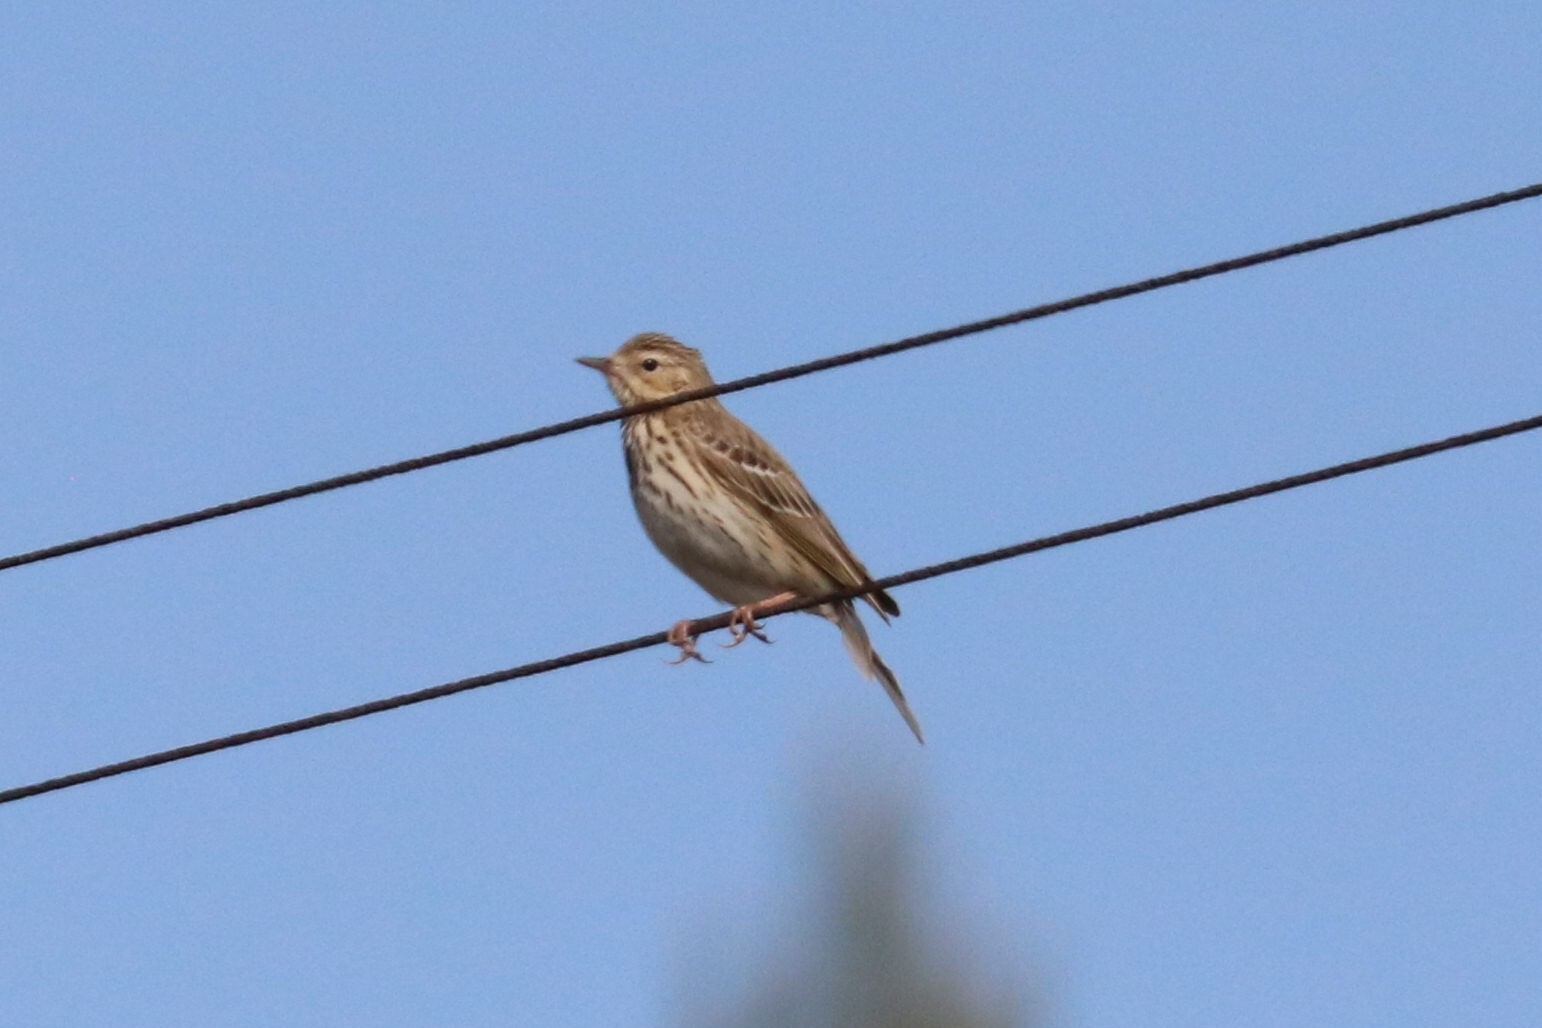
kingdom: Animalia
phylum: Chordata
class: Aves
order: Passeriformes
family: Motacillidae
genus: Anthus
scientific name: Anthus trivialis
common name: Tree pipit
